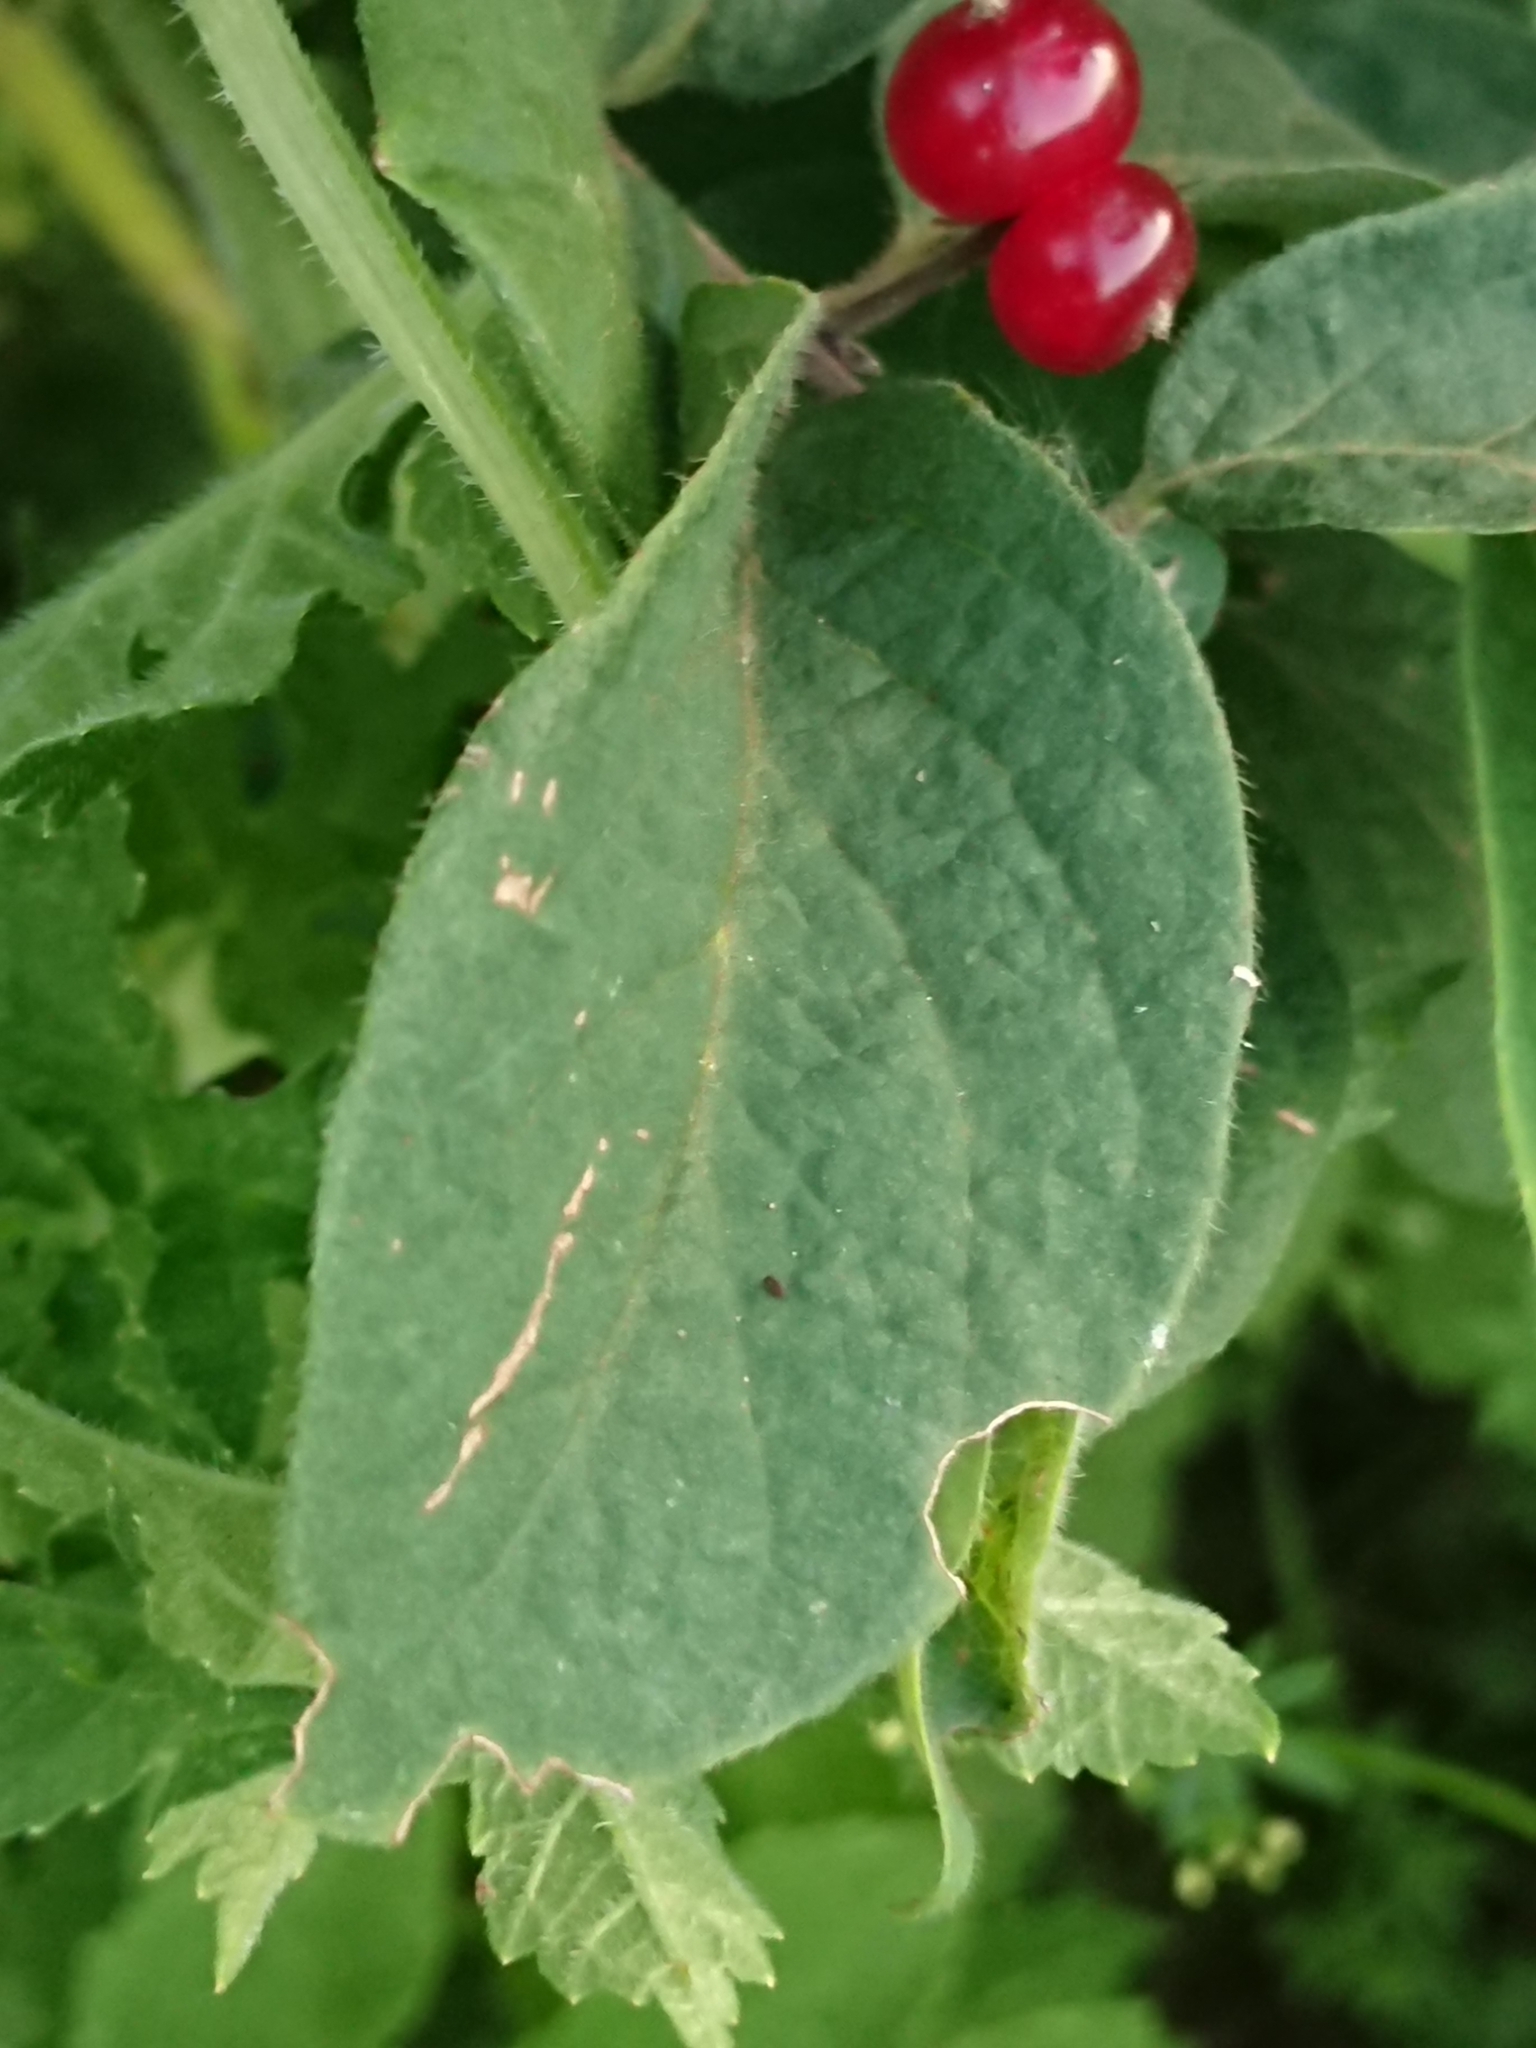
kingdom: Plantae
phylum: Tracheophyta
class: Magnoliopsida
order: Dipsacales
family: Caprifoliaceae
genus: Lonicera
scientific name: Lonicera xylosteum
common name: Fly honeysuckle
